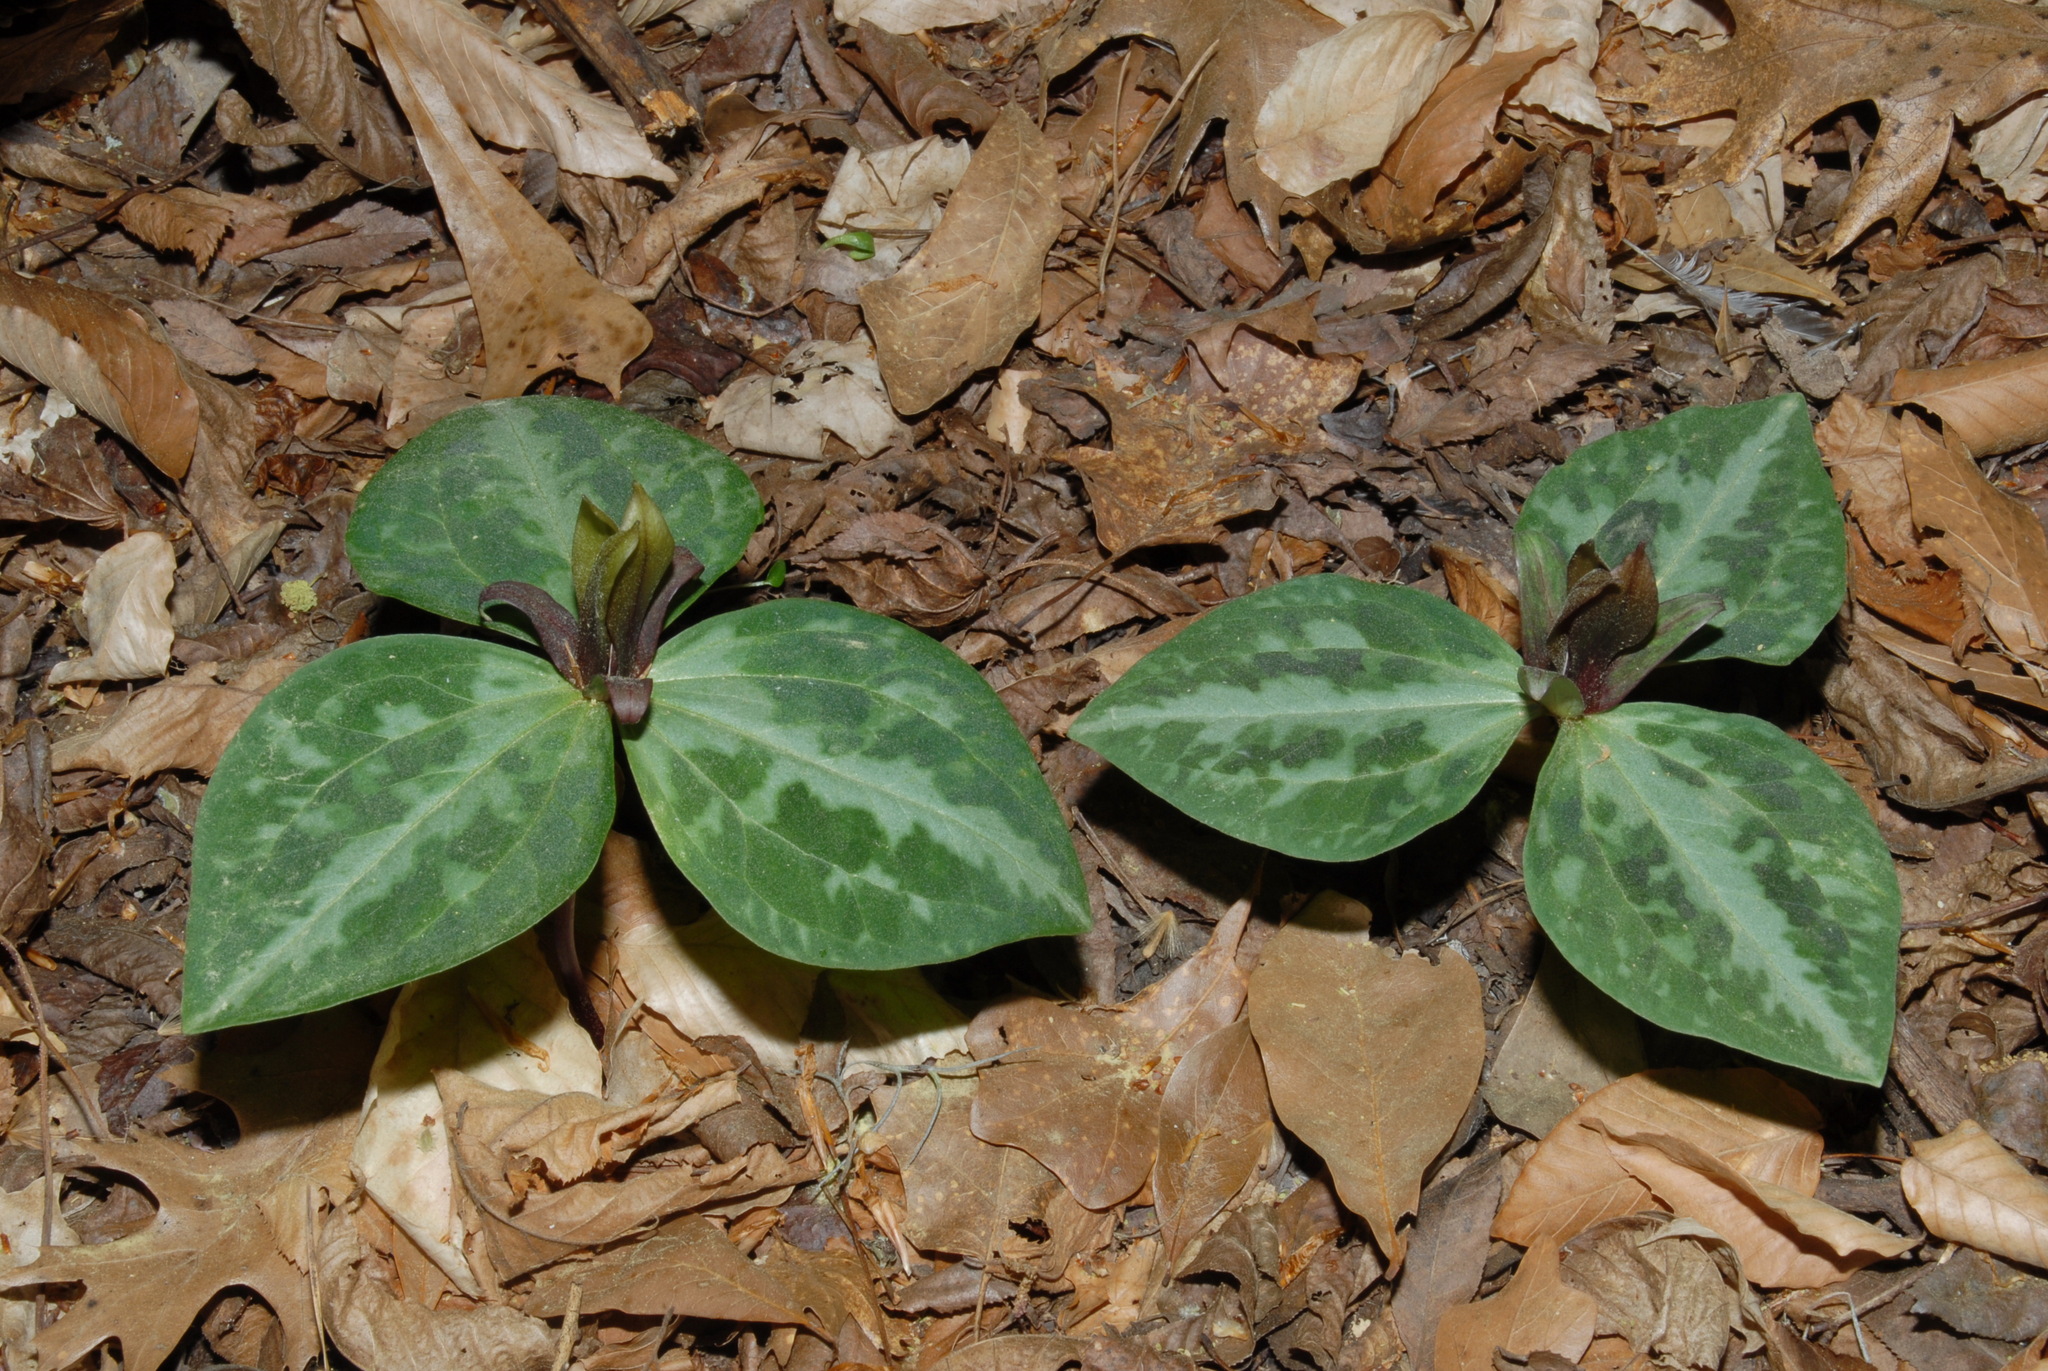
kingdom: Plantae
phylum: Tracheophyta
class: Liliopsida
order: Liliales
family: Melanthiaceae
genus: Trillium
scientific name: Trillium reliquum
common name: Relict trillium
